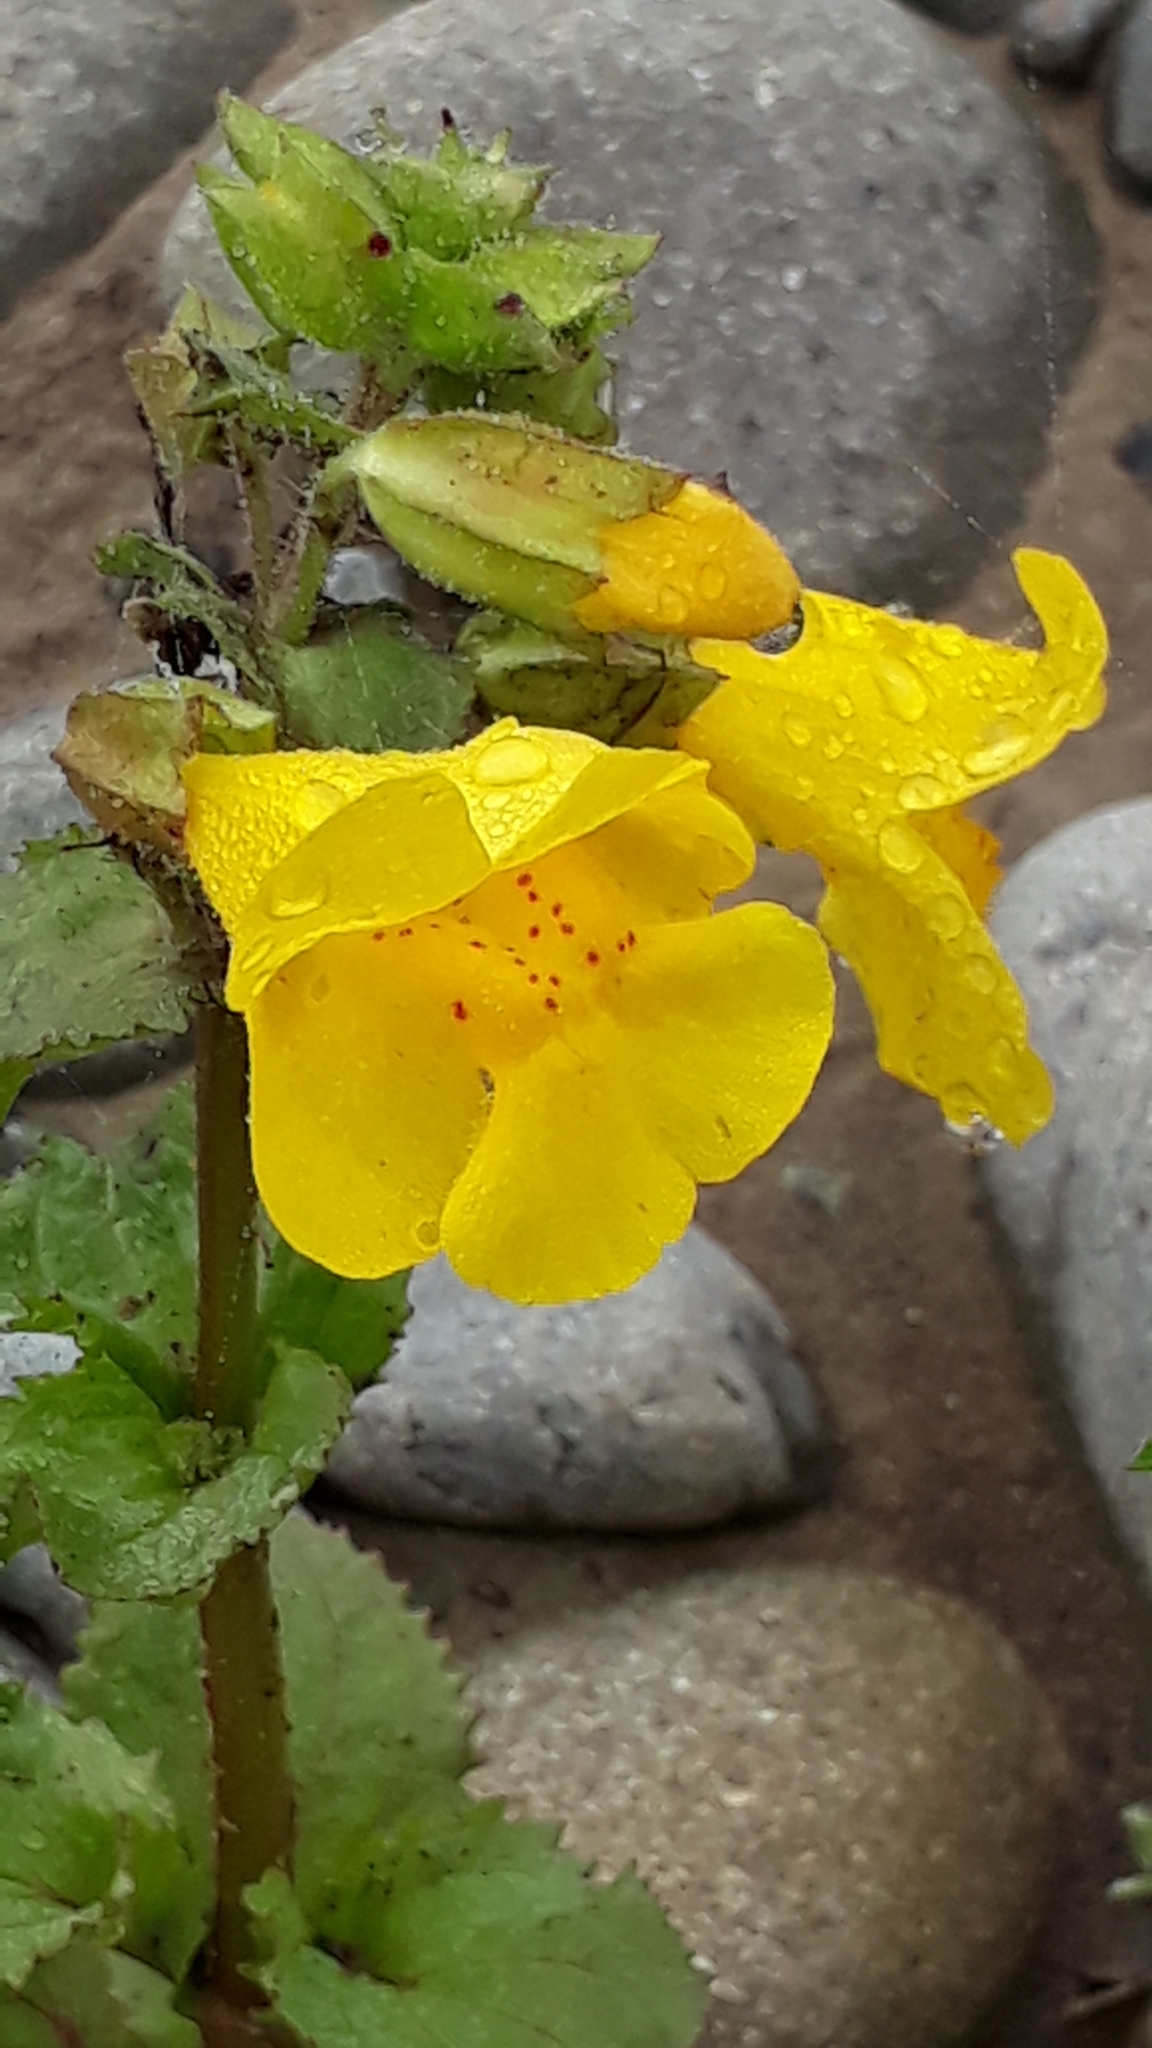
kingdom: Plantae
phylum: Tracheophyta
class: Magnoliopsida
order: Lamiales
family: Phrymaceae
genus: Erythranthe
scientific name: Erythranthe guttata
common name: Monkeyflower
